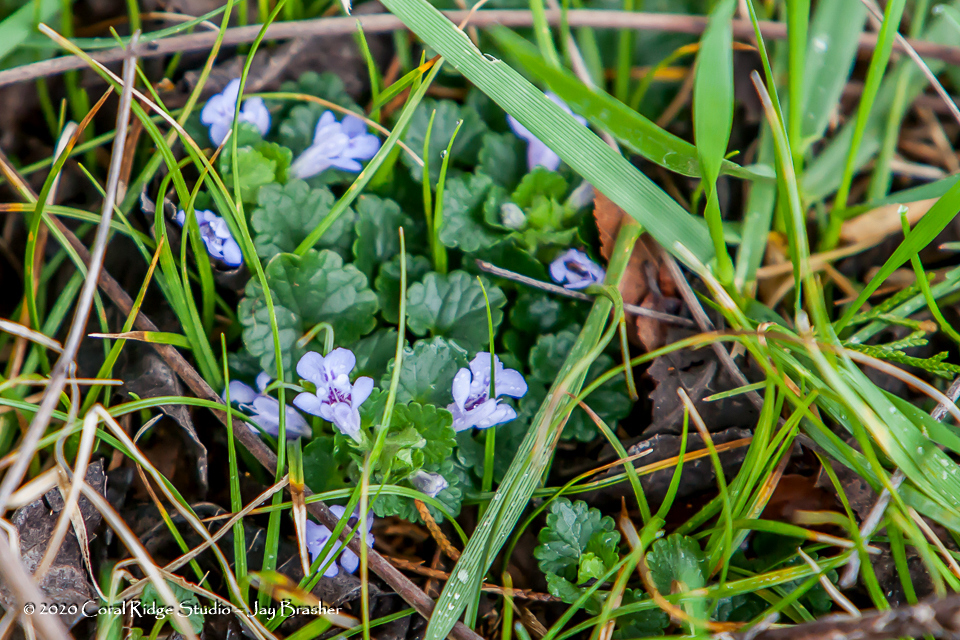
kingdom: Plantae
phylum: Tracheophyta
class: Magnoliopsida
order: Lamiales
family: Lamiaceae
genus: Glechoma
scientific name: Glechoma hederacea
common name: Ground ivy
